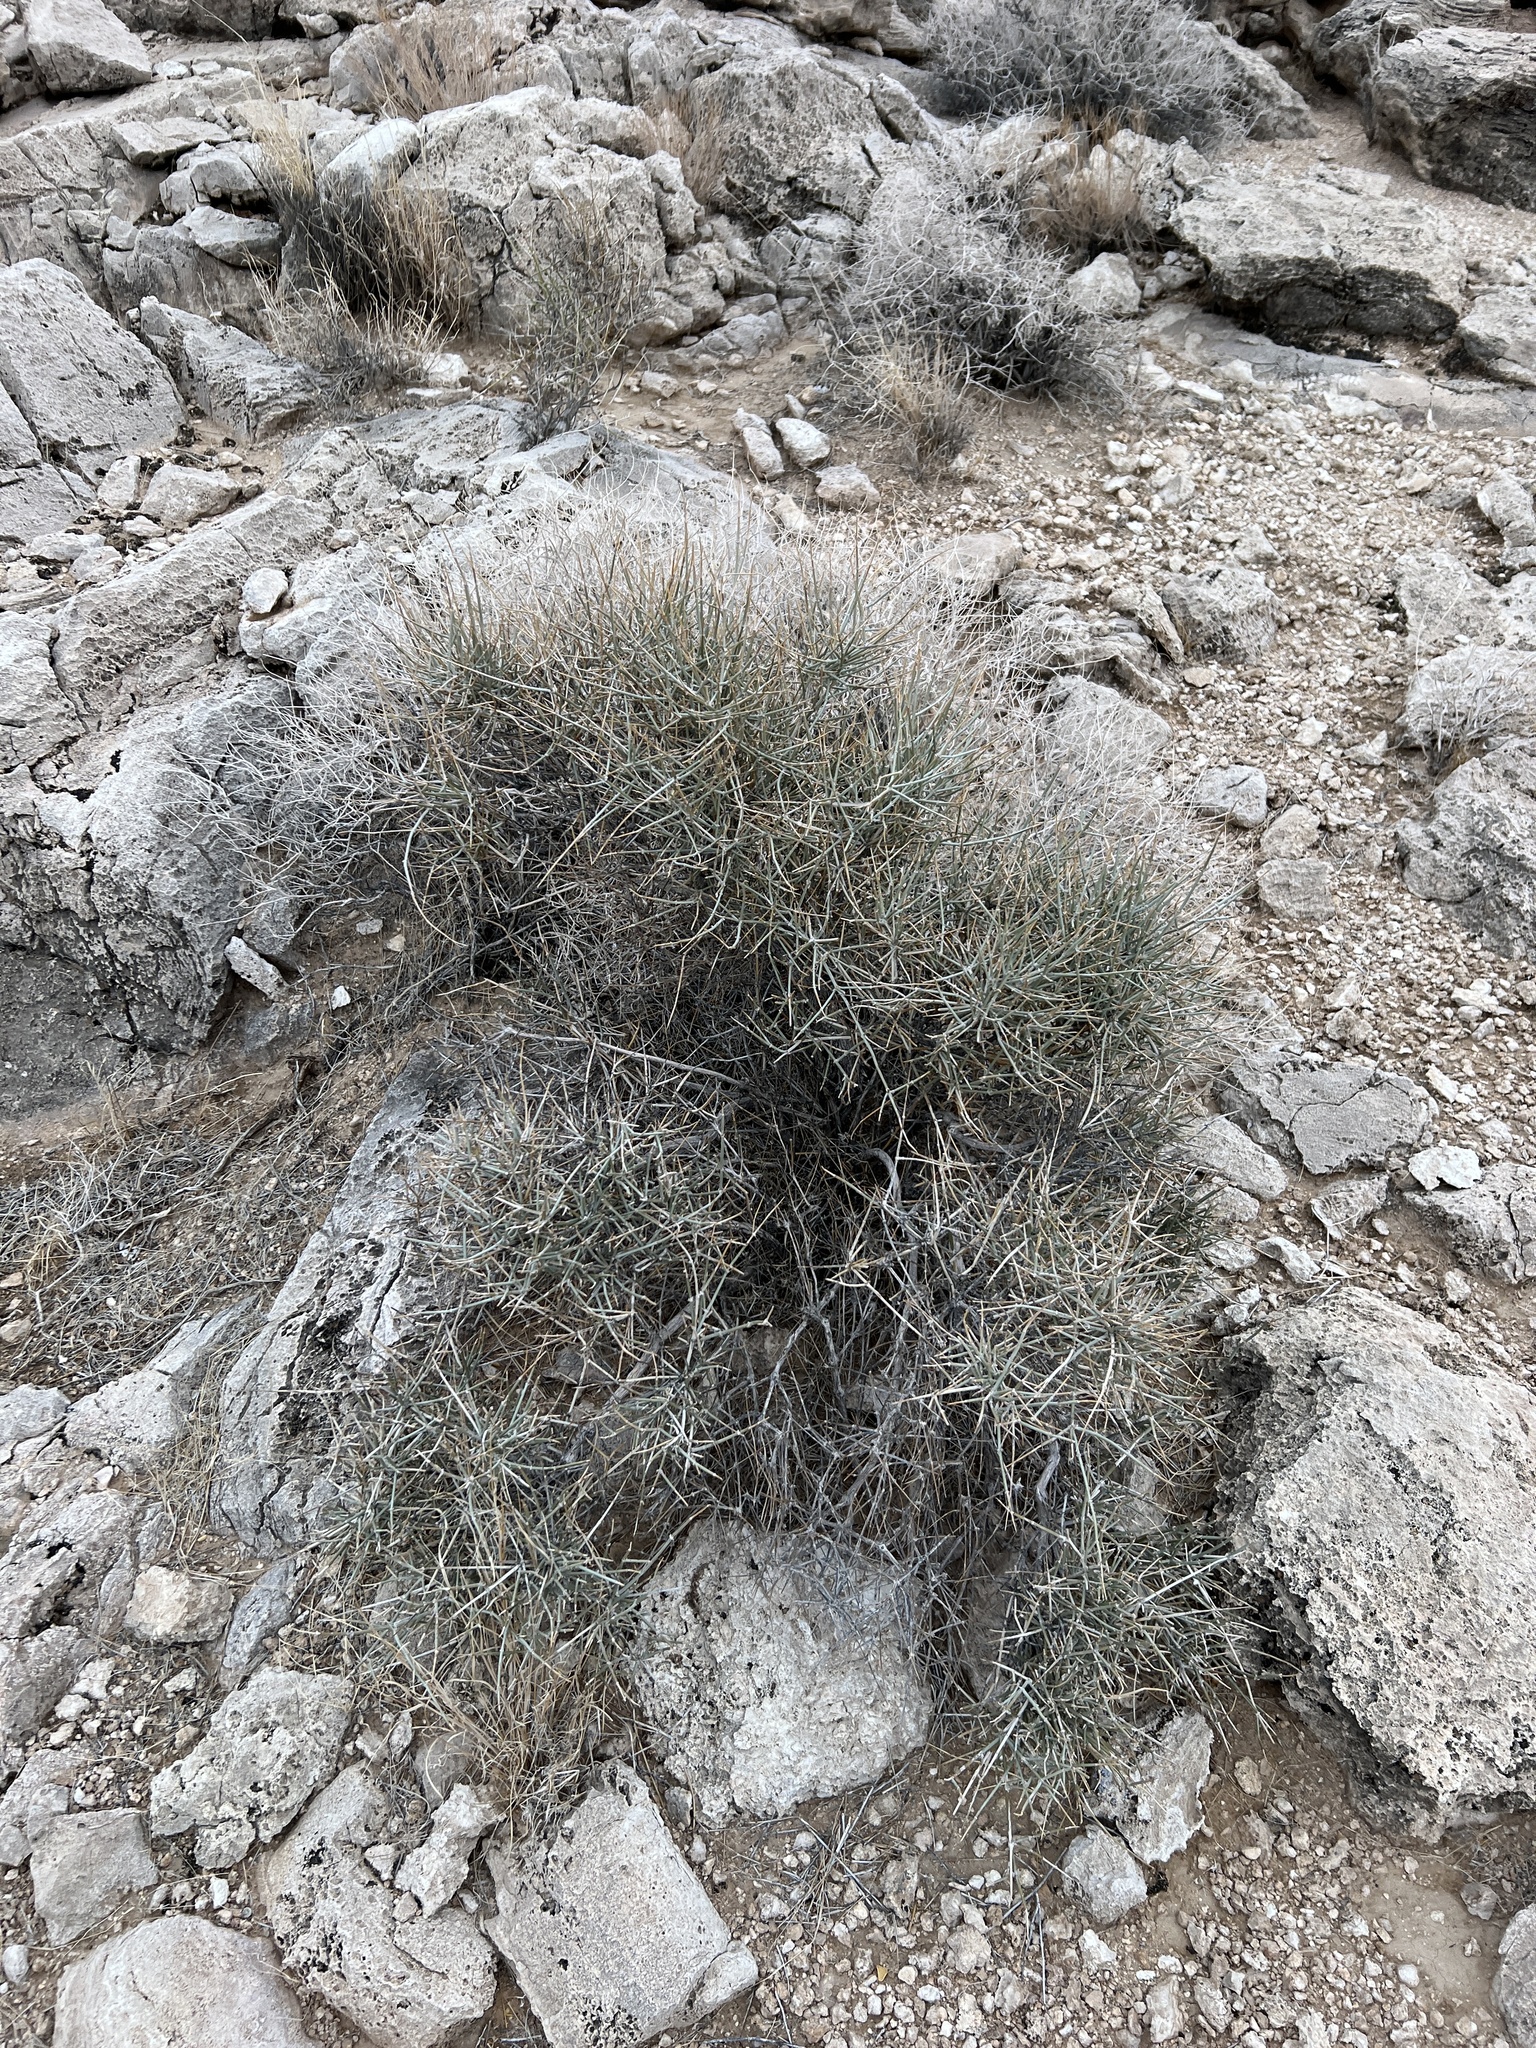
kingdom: Plantae
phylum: Tracheophyta
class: Gnetopsida
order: Ephedrales
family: Ephedraceae
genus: Ephedra
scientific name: Ephedra nevadensis
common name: Gray ephedra
